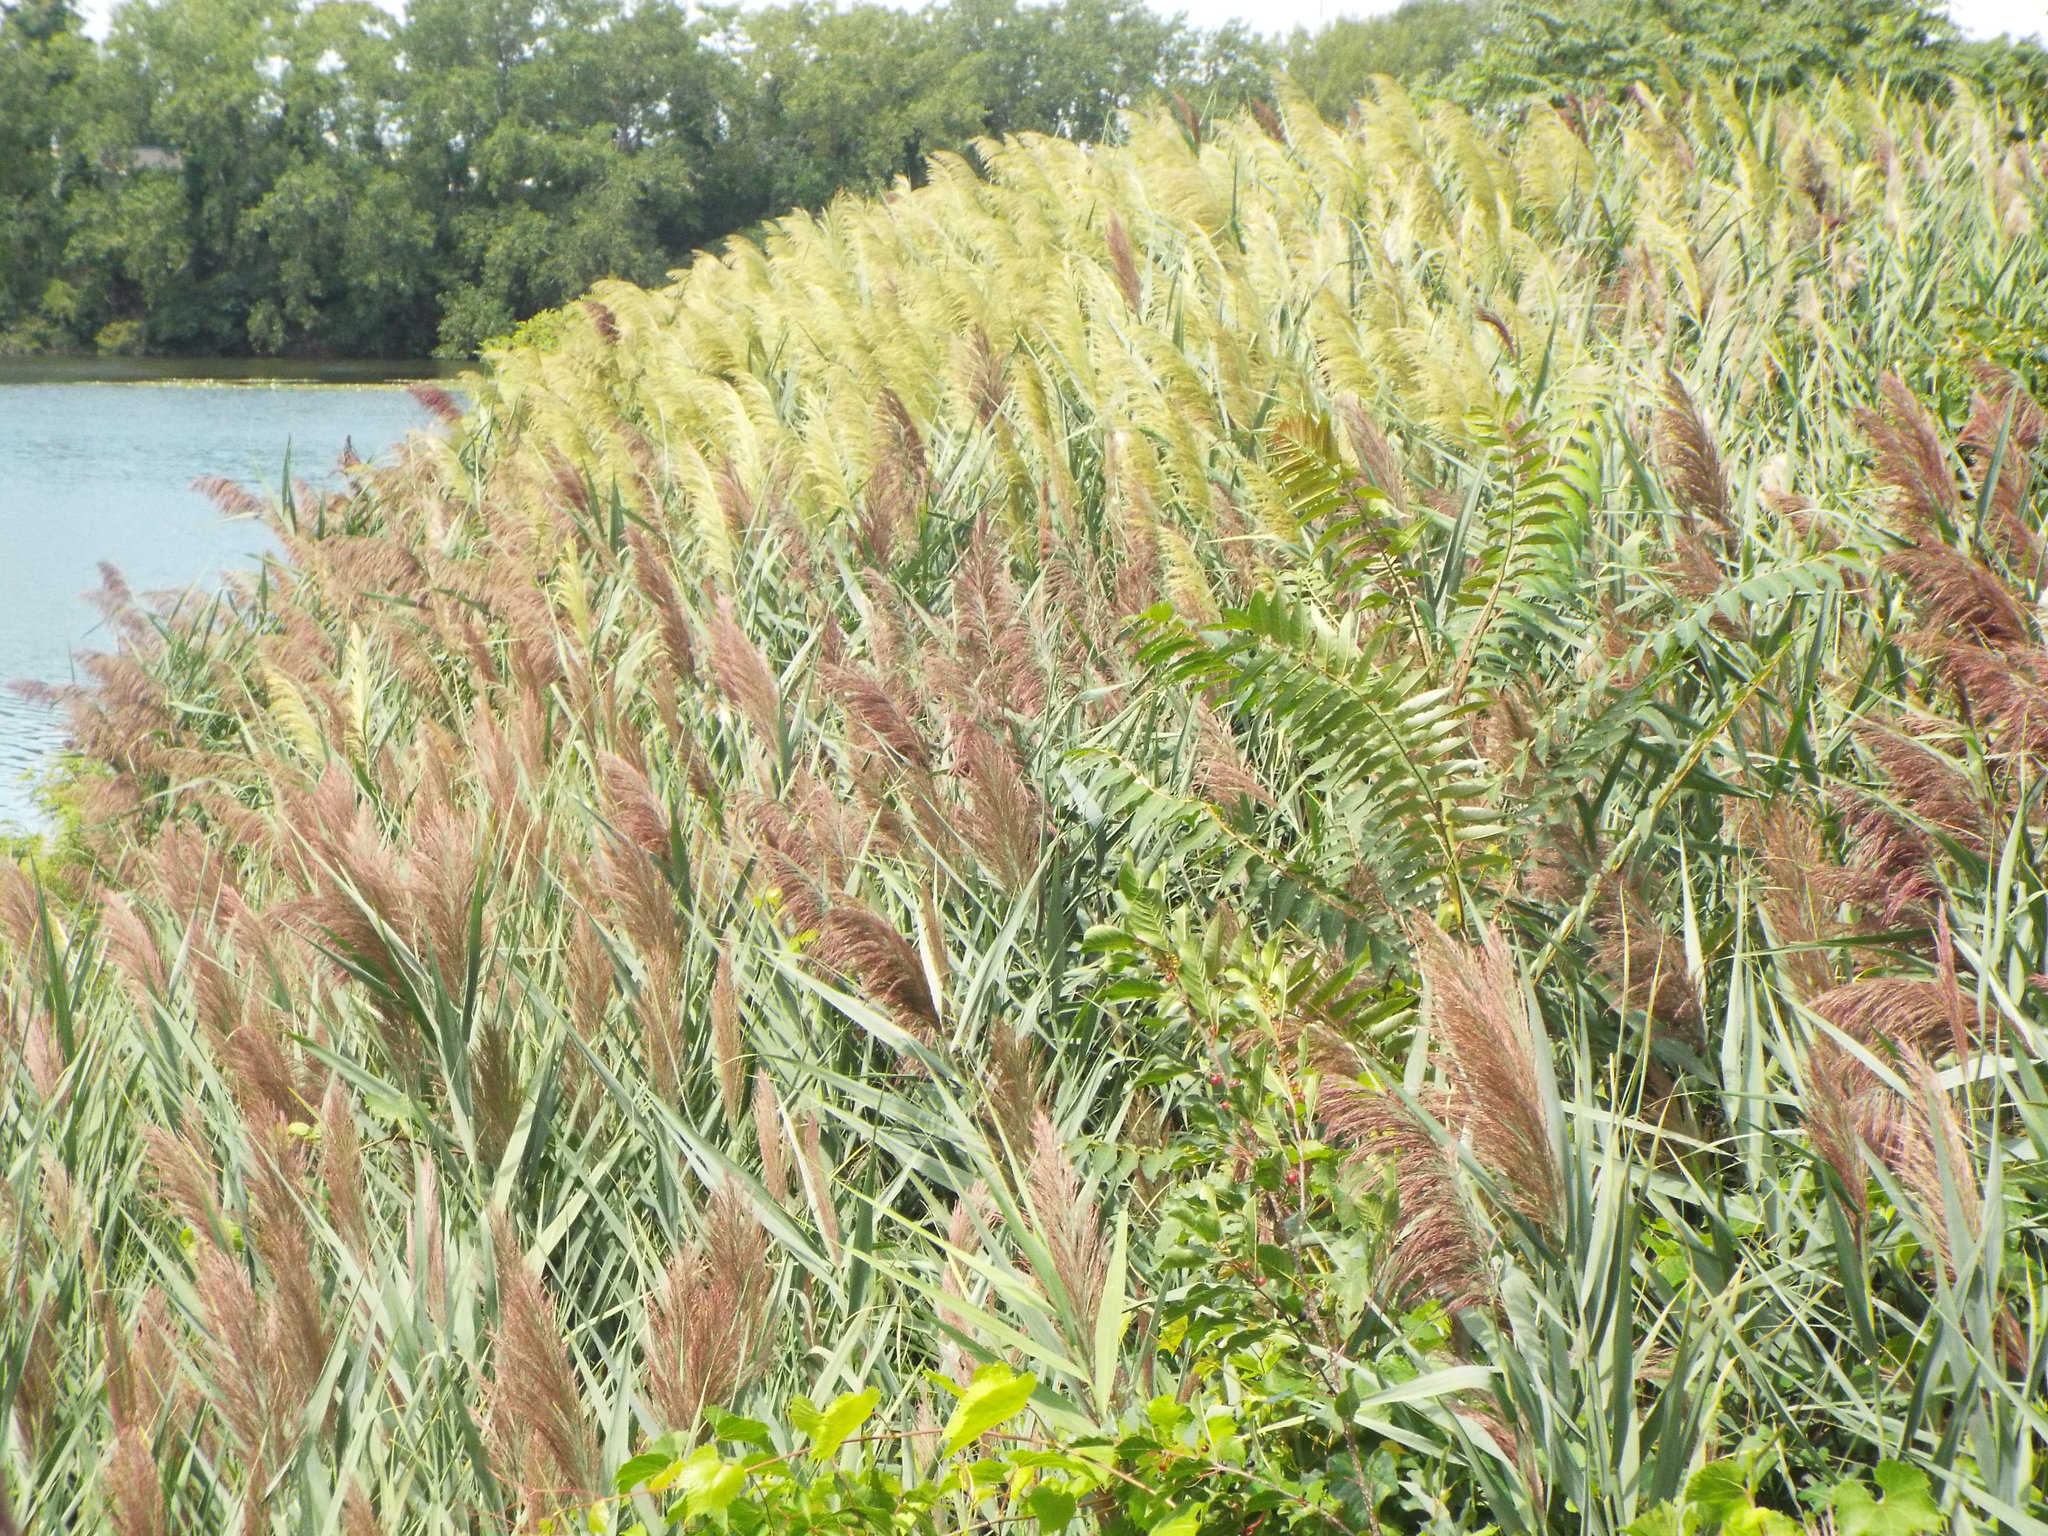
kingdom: Plantae
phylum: Tracheophyta
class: Liliopsida
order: Poales
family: Poaceae
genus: Phragmites
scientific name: Phragmites australis
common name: Common reed
